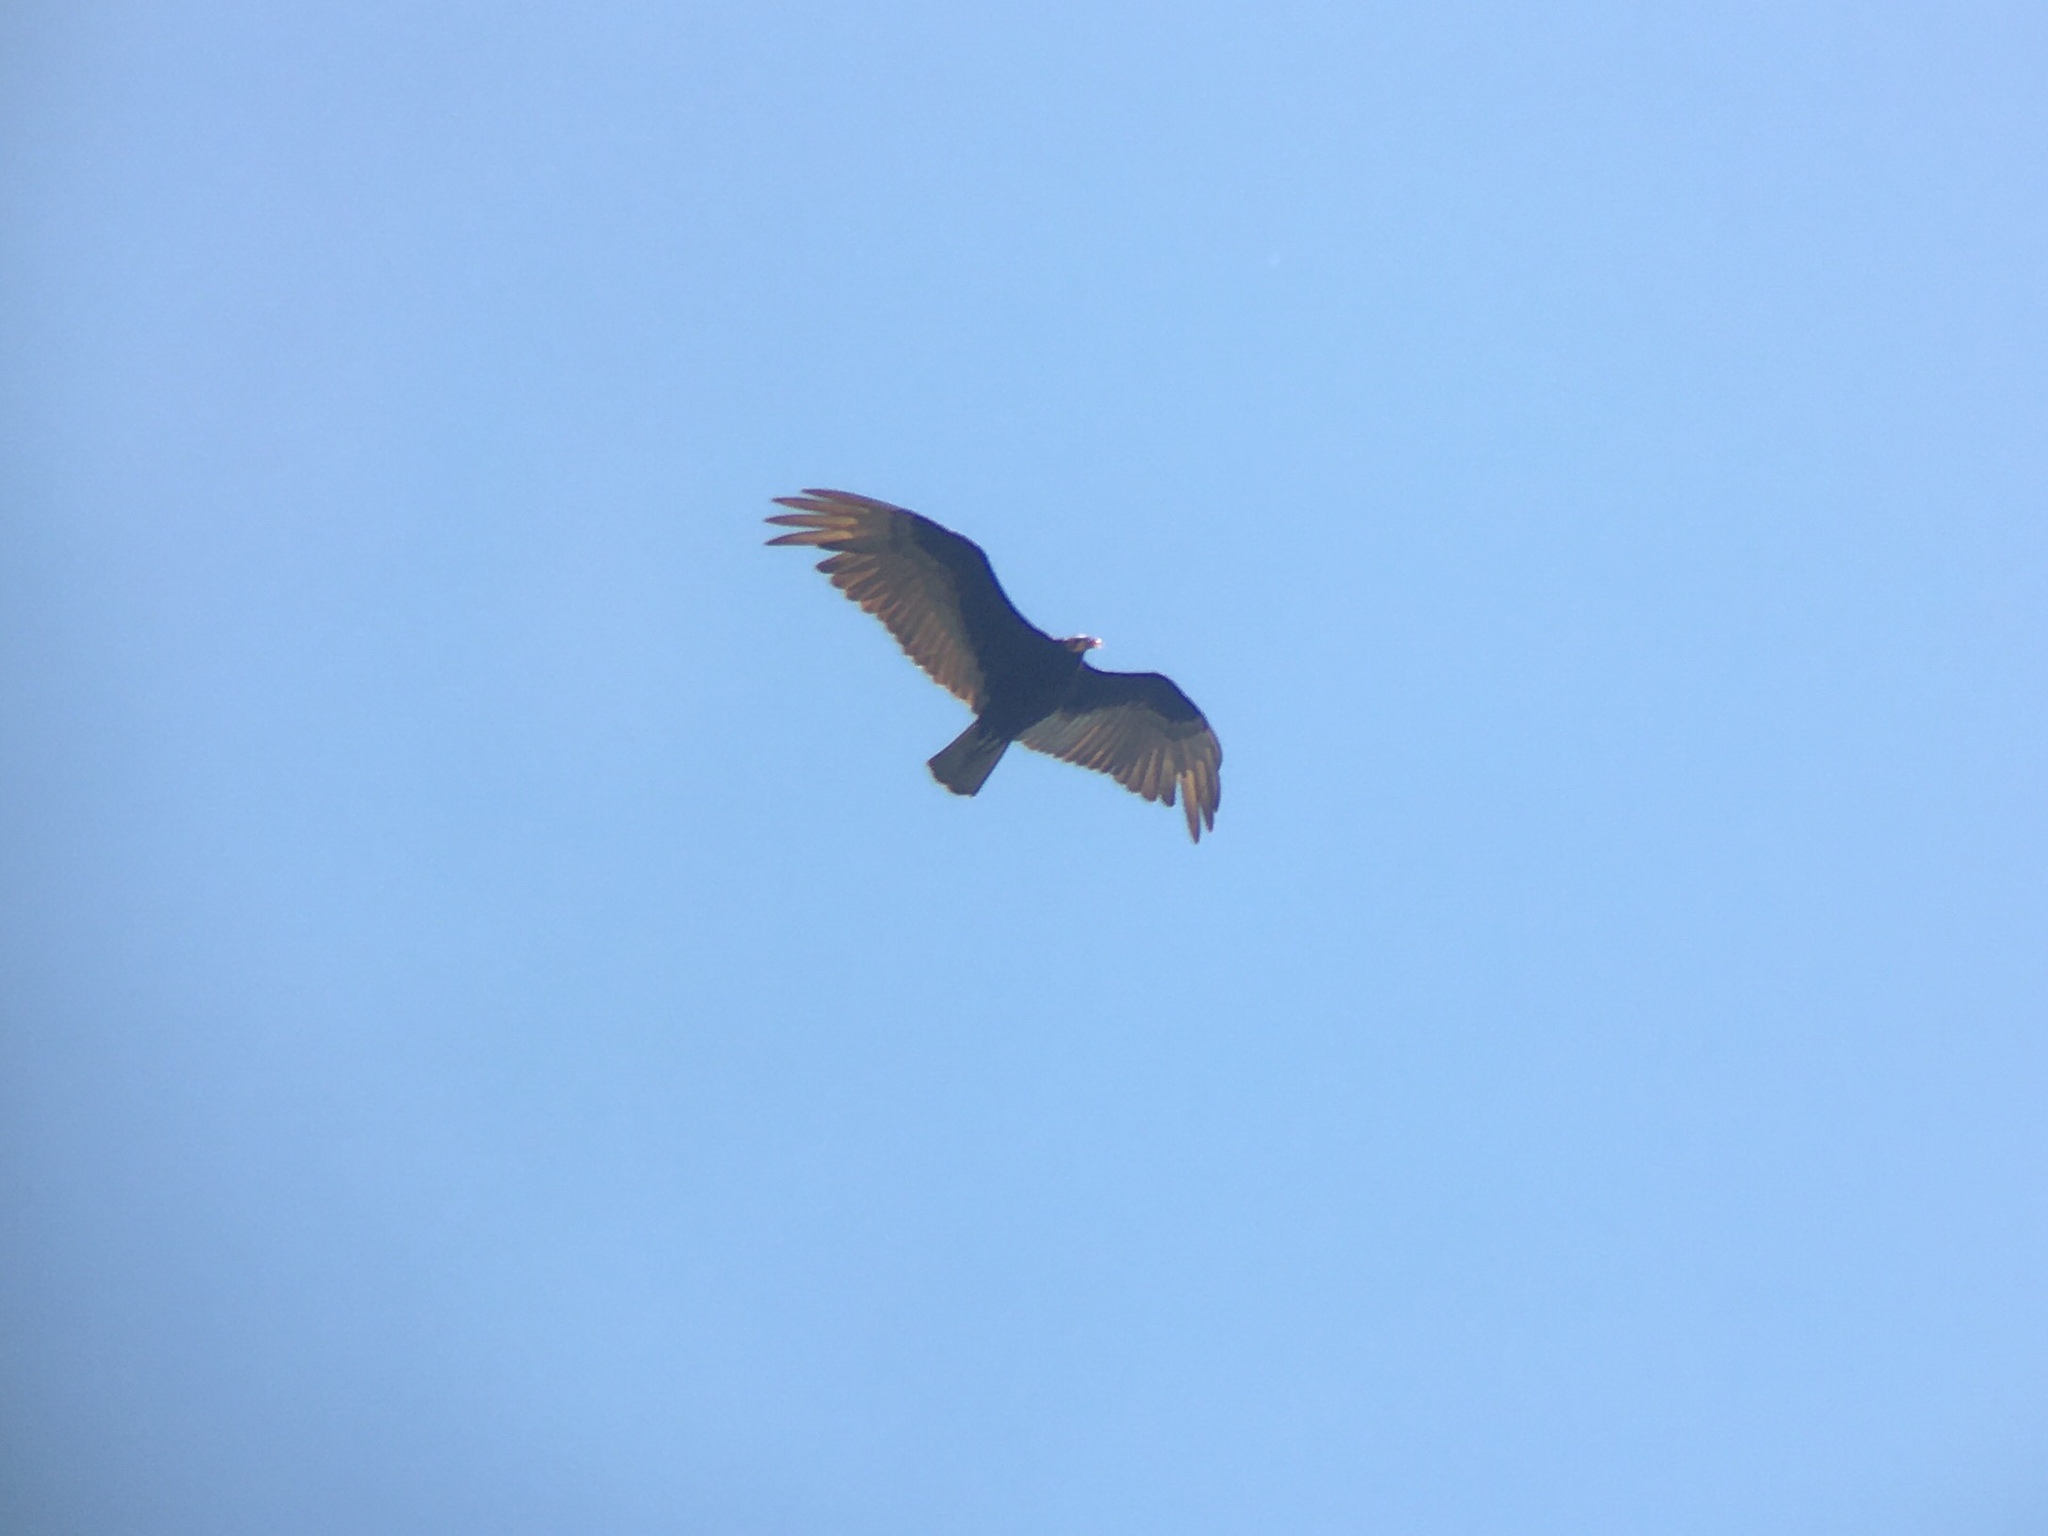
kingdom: Animalia
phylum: Chordata
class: Aves
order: Accipitriformes
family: Cathartidae
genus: Cathartes
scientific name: Cathartes burrovianus
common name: Lesser yellow-headed vulture
